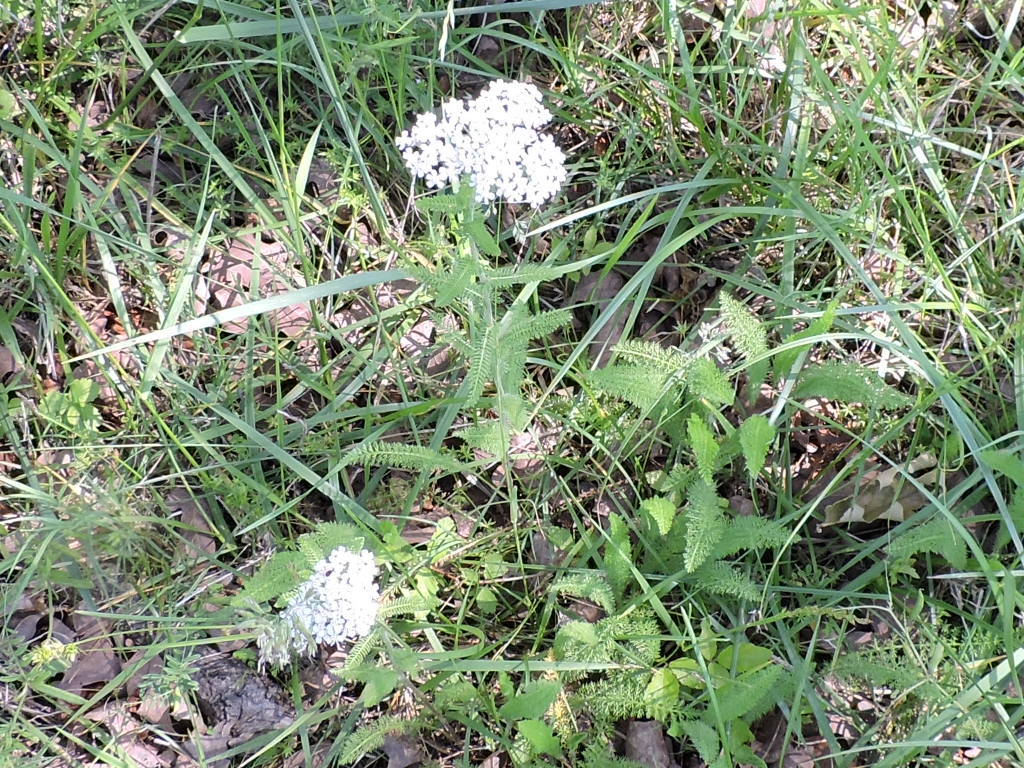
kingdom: Plantae
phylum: Tracheophyta
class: Magnoliopsida
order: Asterales
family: Asteraceae
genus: Achillea
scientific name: Achillea millefolium
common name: Yarrow
